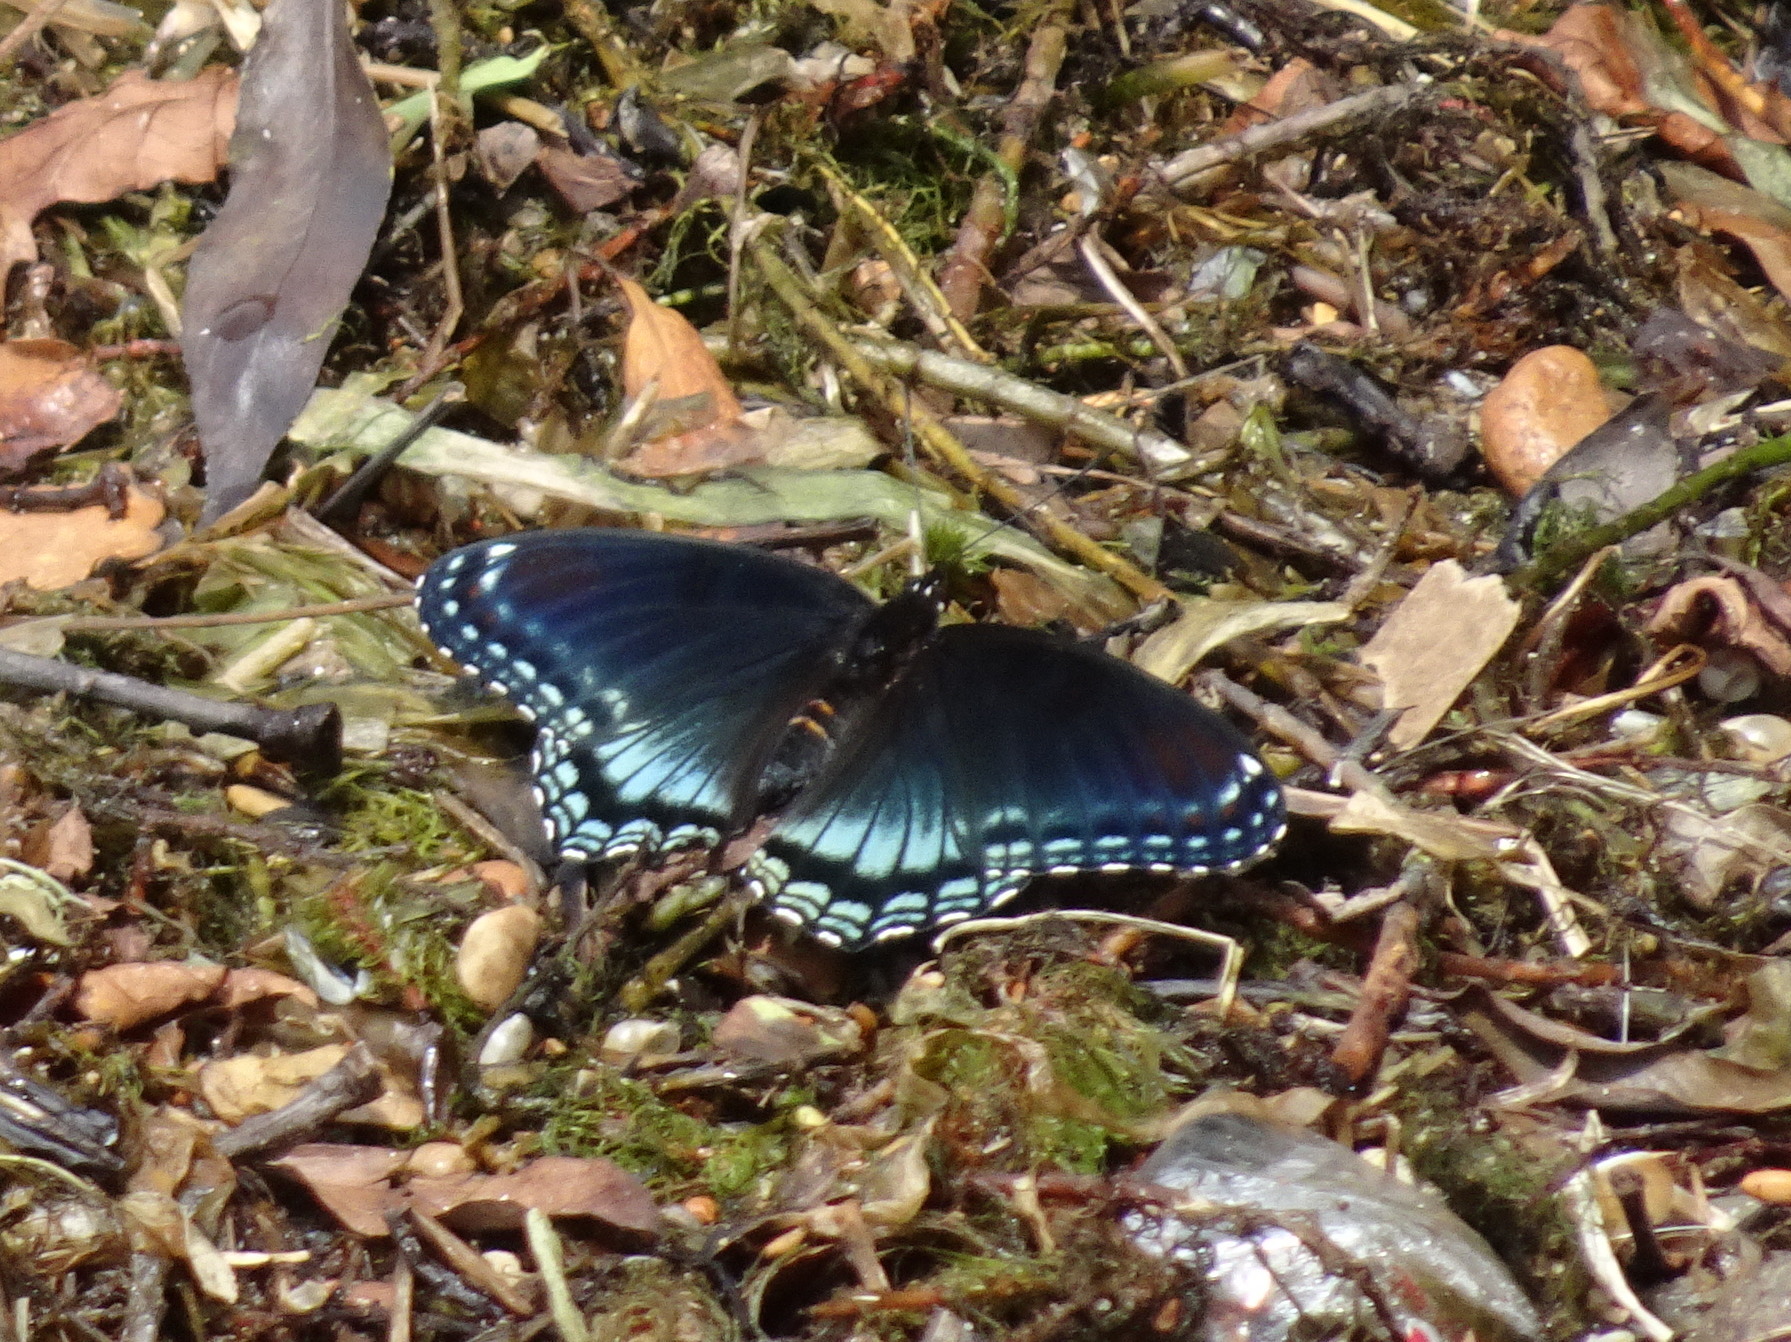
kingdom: Animalia
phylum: Arthropoda
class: Insecta
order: Lepidoptera
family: Nymphalidae
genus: Limenitis
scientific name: Limenitis arthemis
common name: Red-spotted admiral
